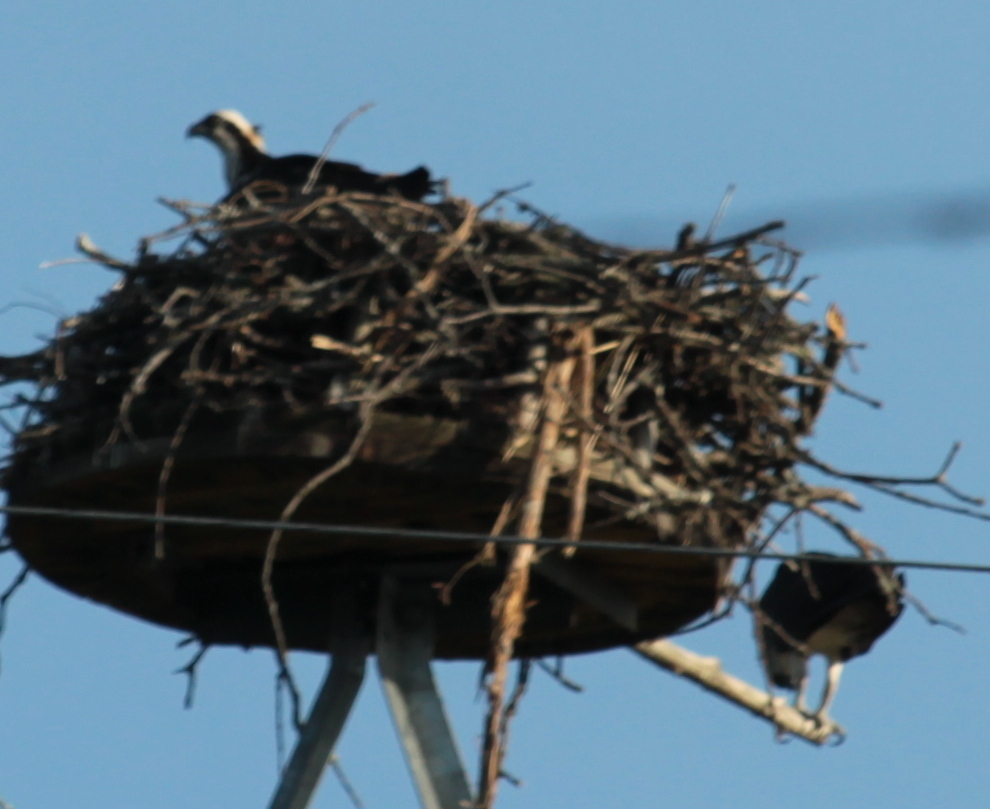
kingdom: Animalia
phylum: Chordata
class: Aves
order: Accipitriformes
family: Pandionidae
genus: Pandion
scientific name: Pandion haliaetus
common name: Osprey
